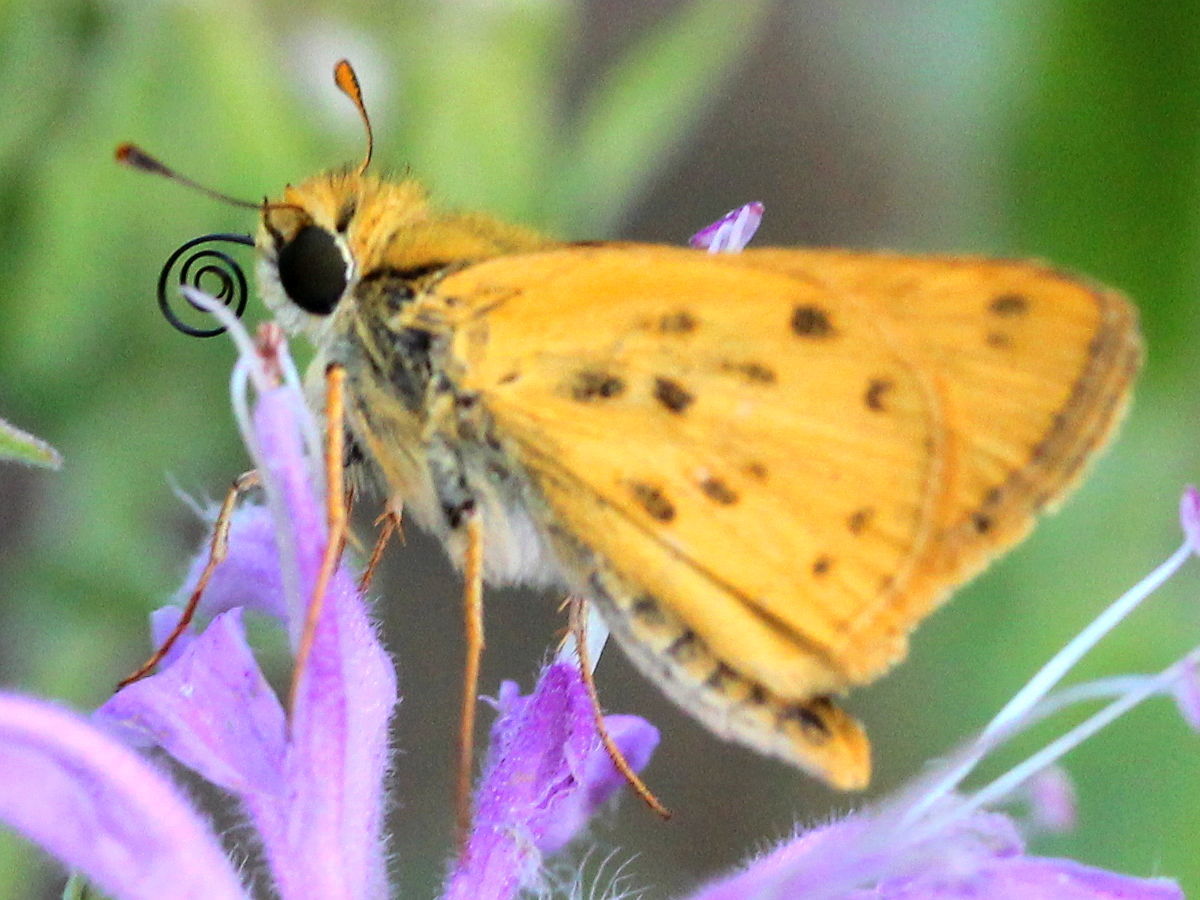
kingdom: Animalia
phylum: Arthropoda
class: Insecta
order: Lepidoptera
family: Hesperiidae
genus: Hylephila
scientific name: Hylephila phyleus
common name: Fiery skipper
